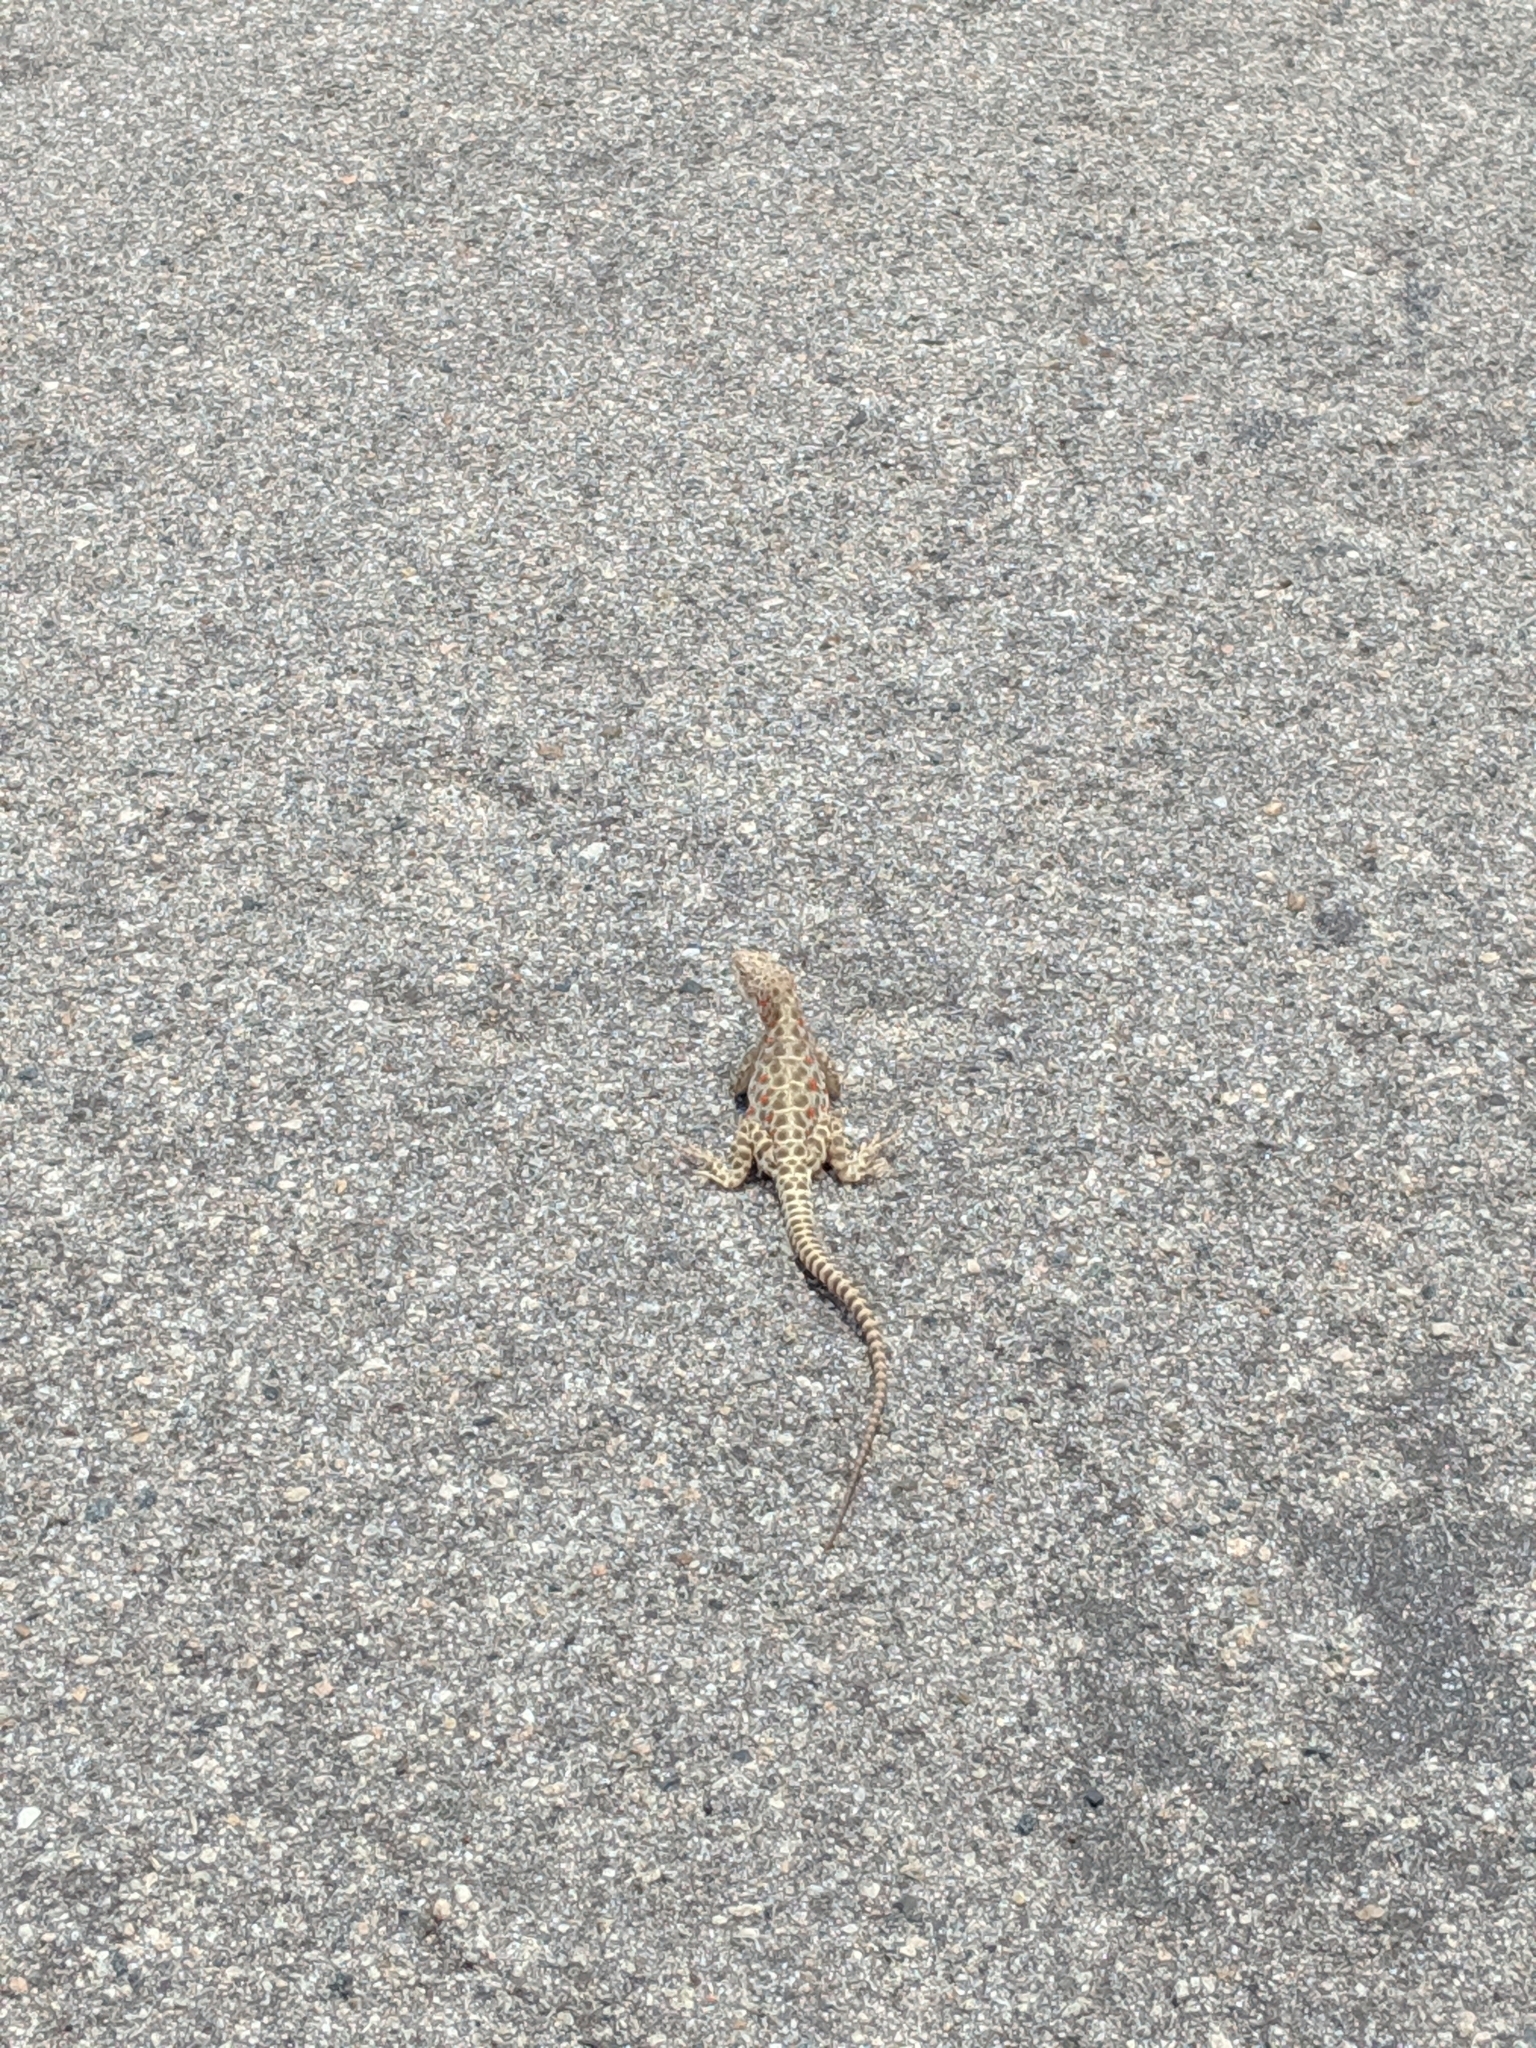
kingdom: Animalia
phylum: Chordata
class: Squamata
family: Crotaphytidae
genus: Gambelia
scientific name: Gambelia wislizenii
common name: Longnose leopard lizard
